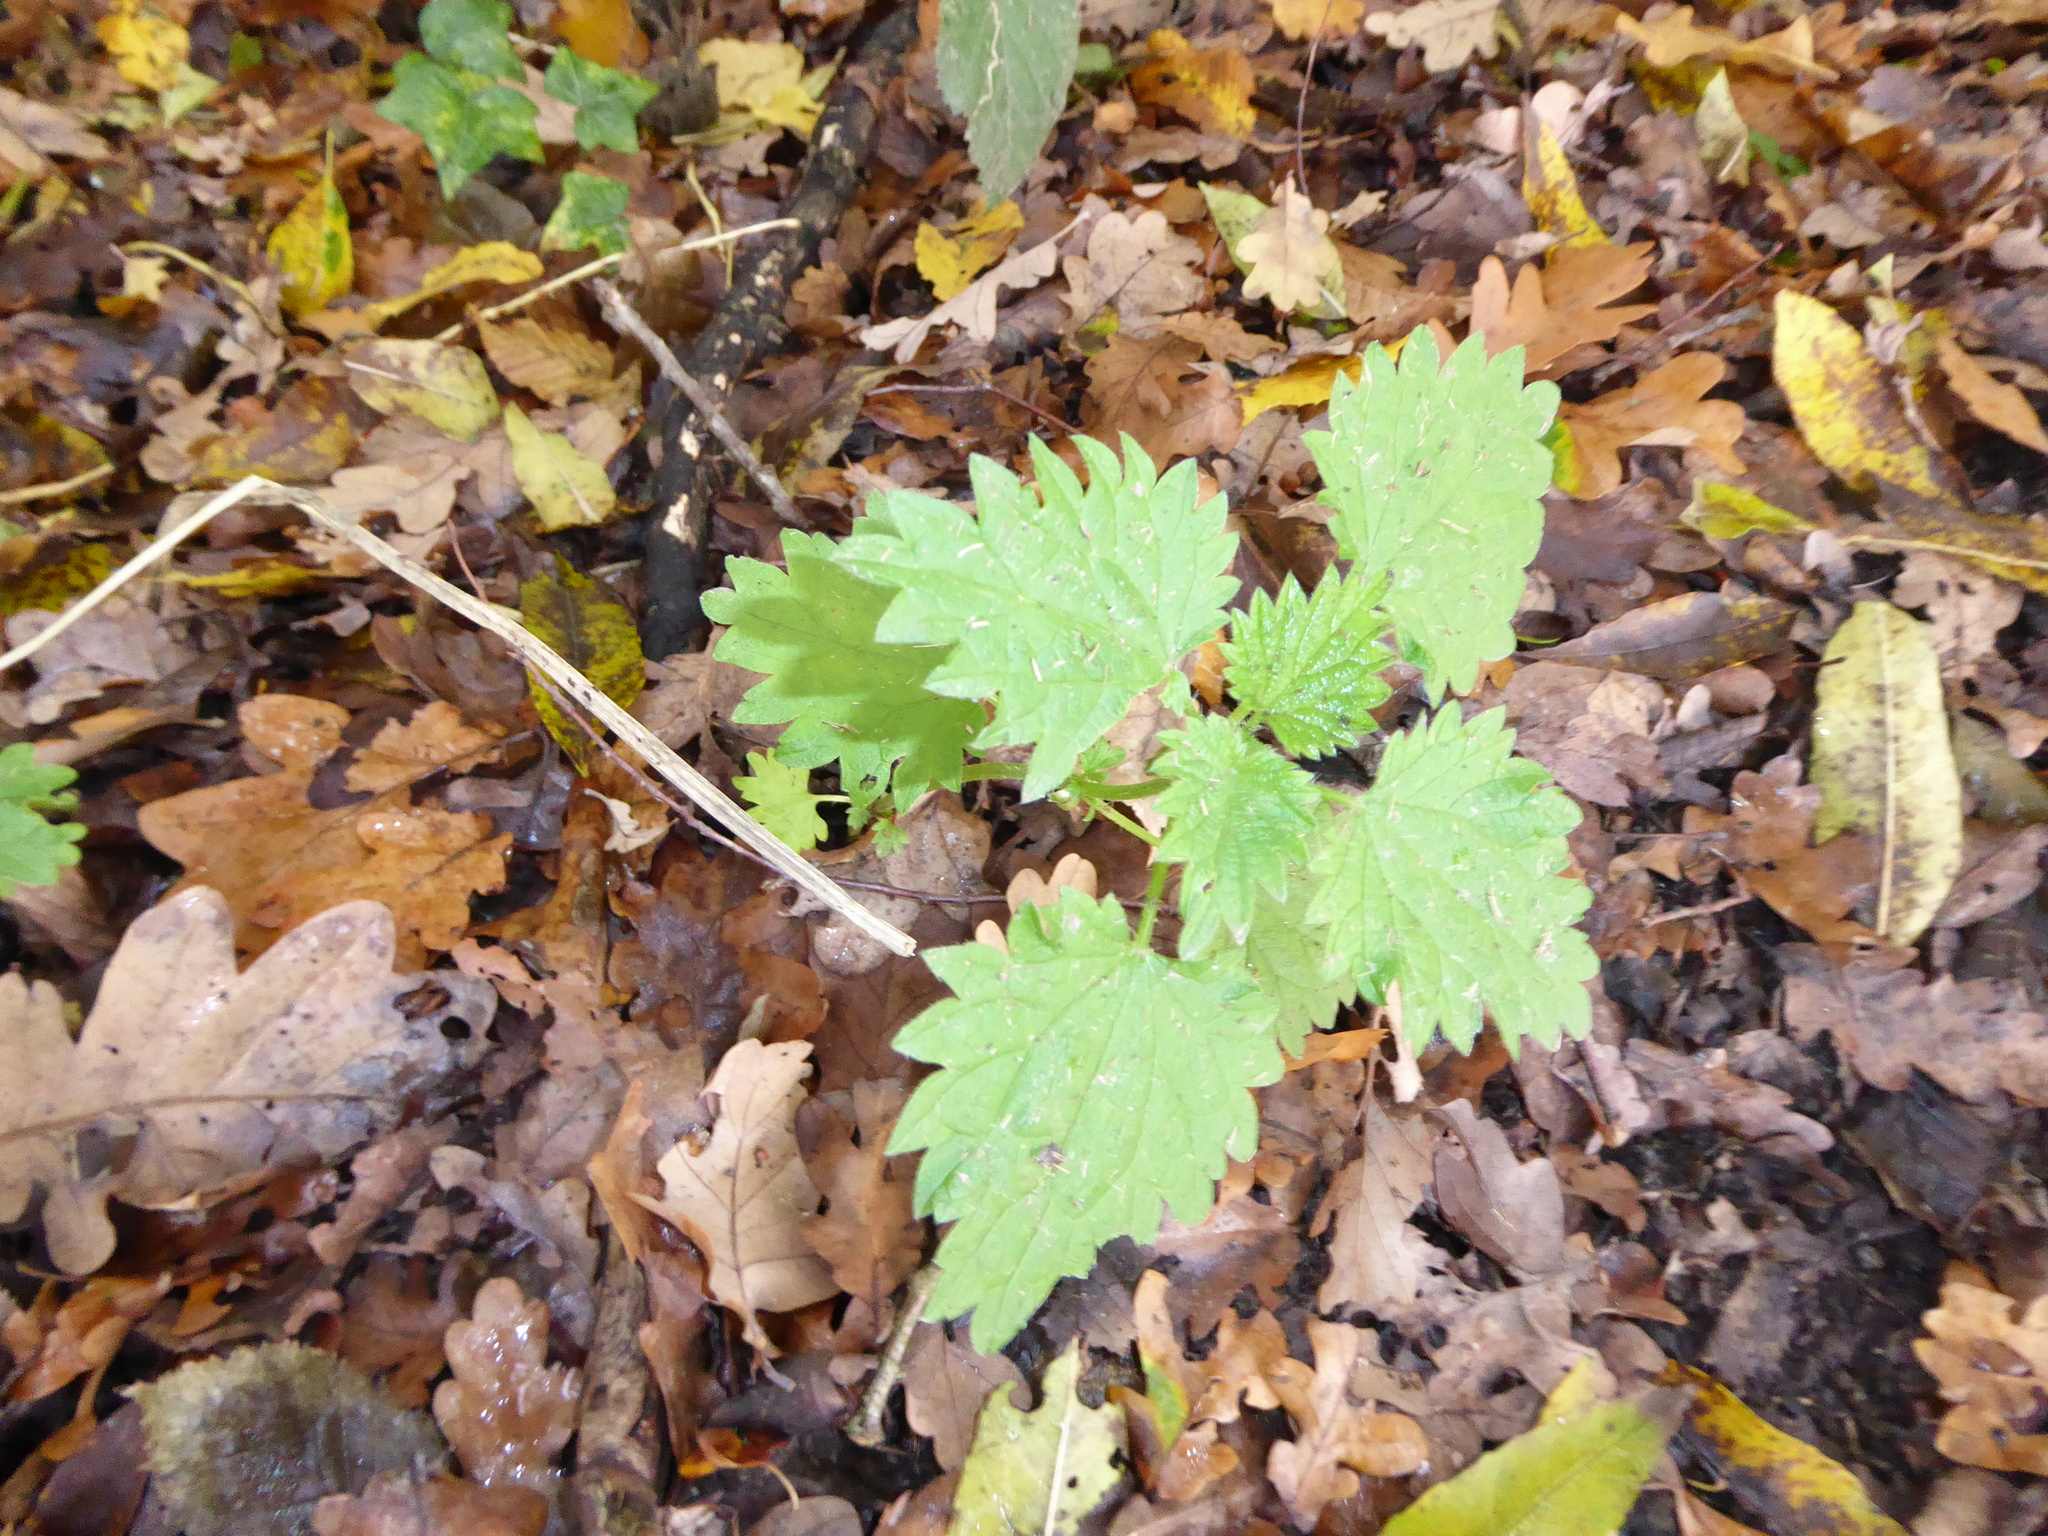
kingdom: Plantae
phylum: Tracheophyta
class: Magnoliopsida
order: Rosales
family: Urticaceae
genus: Urtica
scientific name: Urtica dioica
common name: Common nettle
